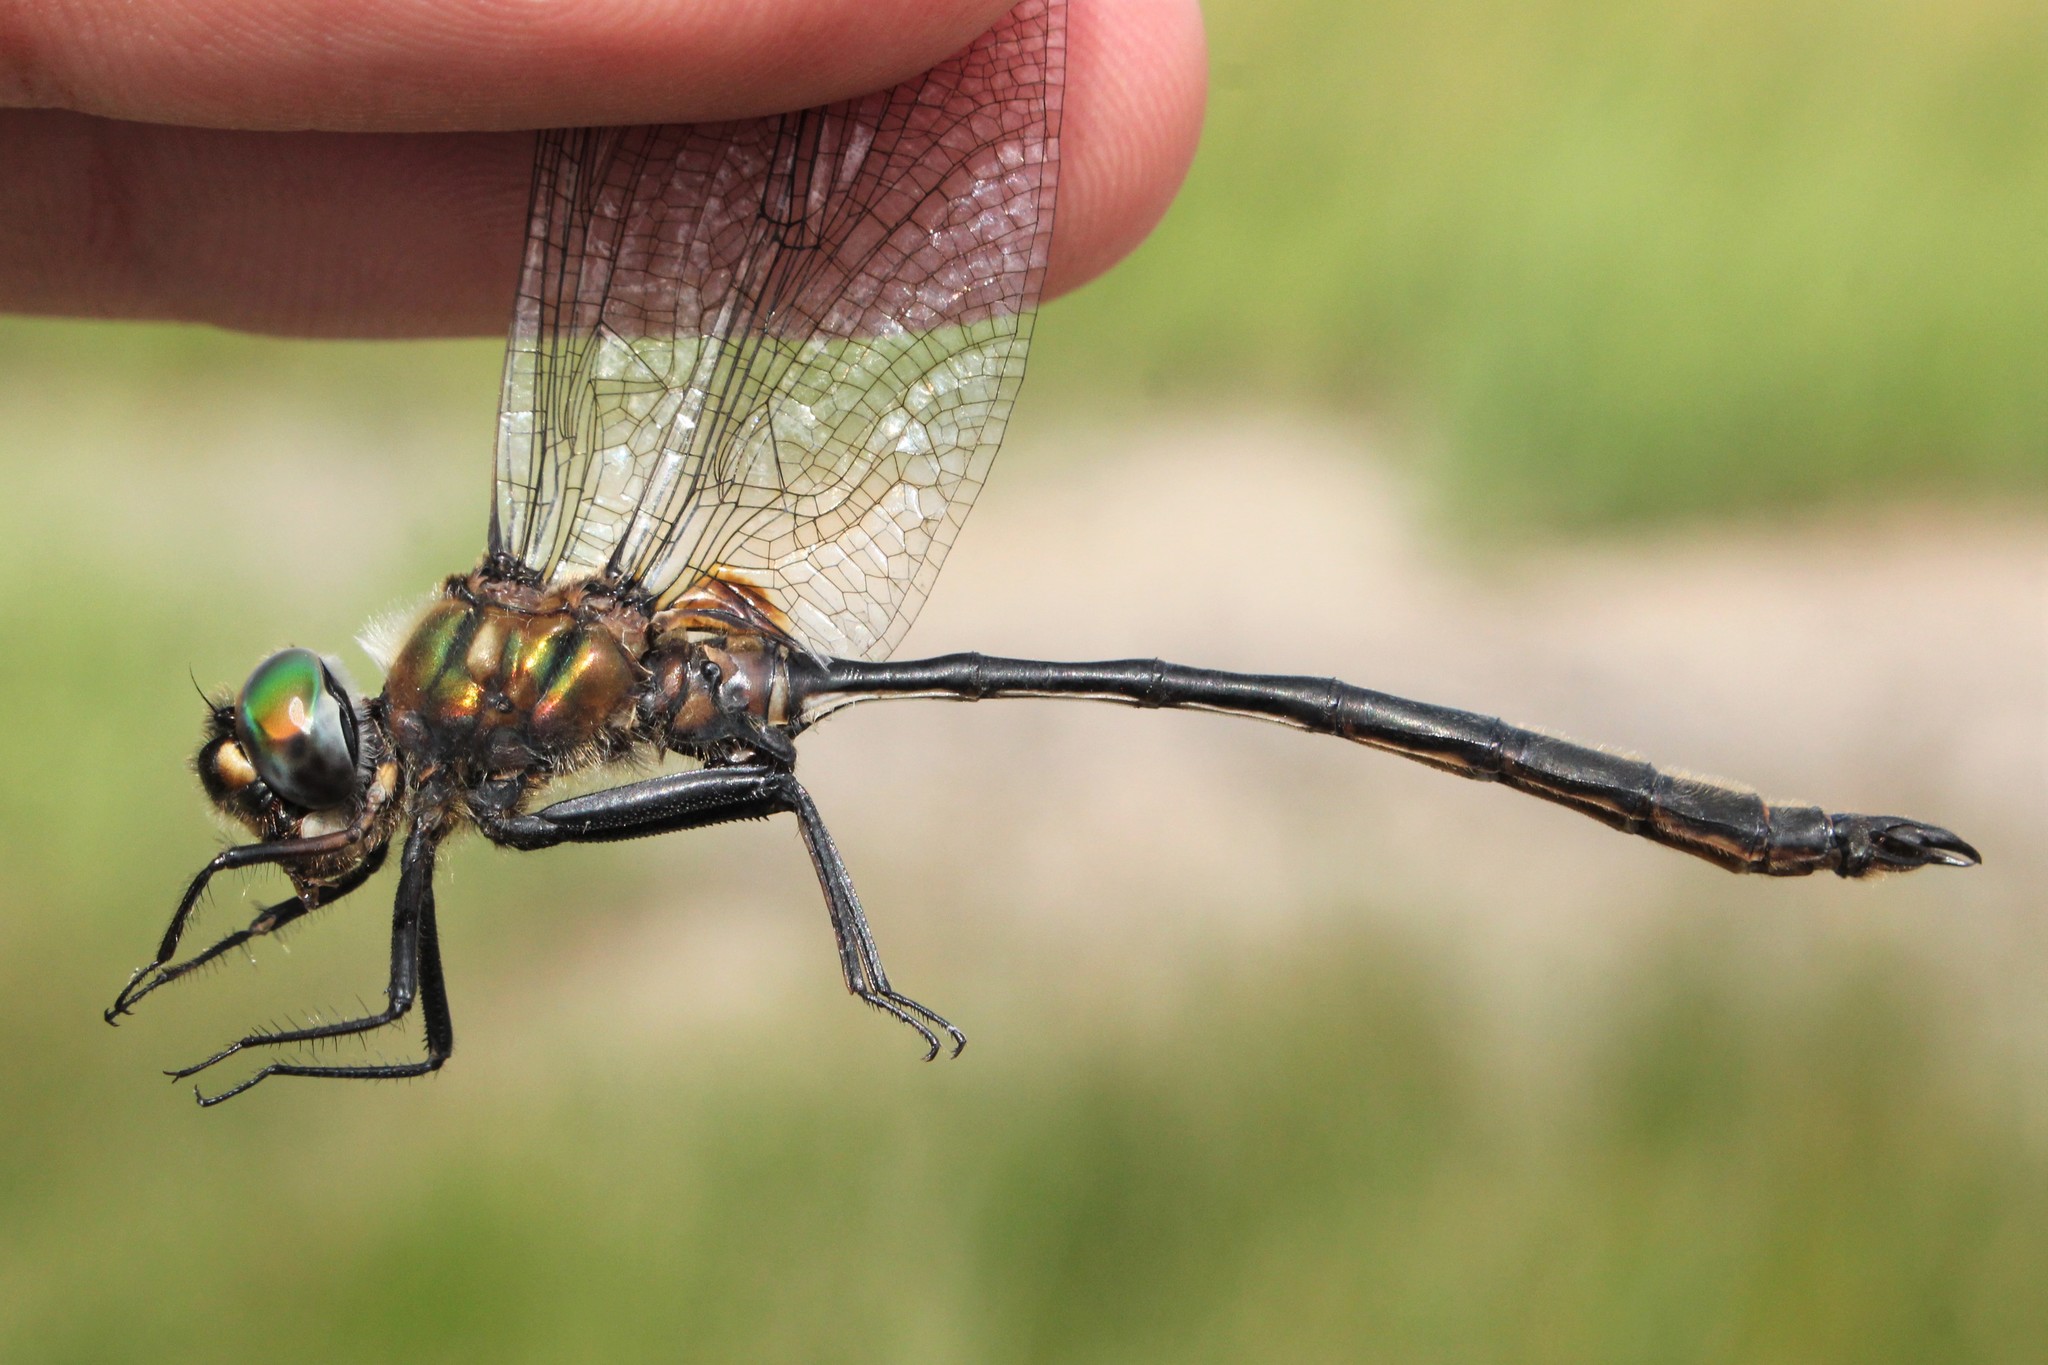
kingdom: Animalia
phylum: Arthropoda
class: Insecta
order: Odonata
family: Corduliidae
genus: Somatochlora
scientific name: Somatochlora franklini
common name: Delicate emerald
